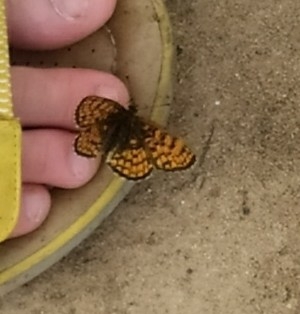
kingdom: Animalia
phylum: Arthropoda
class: Insecta
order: Lepidoptera
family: Nymphalidae
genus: Melitaea
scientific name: Melitaea athalia
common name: Heath fritillary
